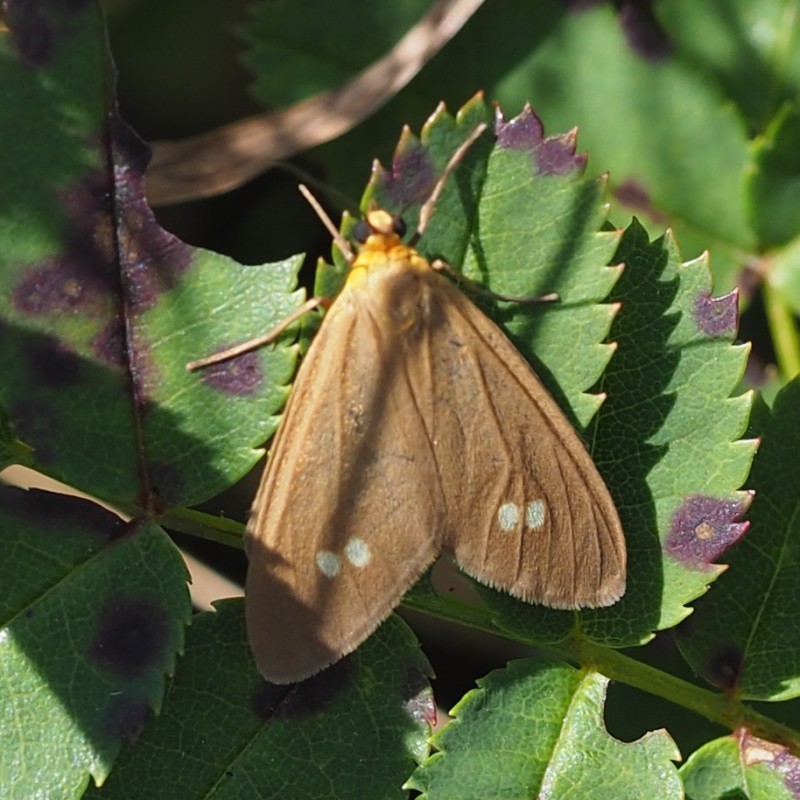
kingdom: Animalia
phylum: Arthropoda
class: Insecta
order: Lepidoptera
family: Erebidae
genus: Dysauxes
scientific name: Dysauxes ancilla
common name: The handmaid
